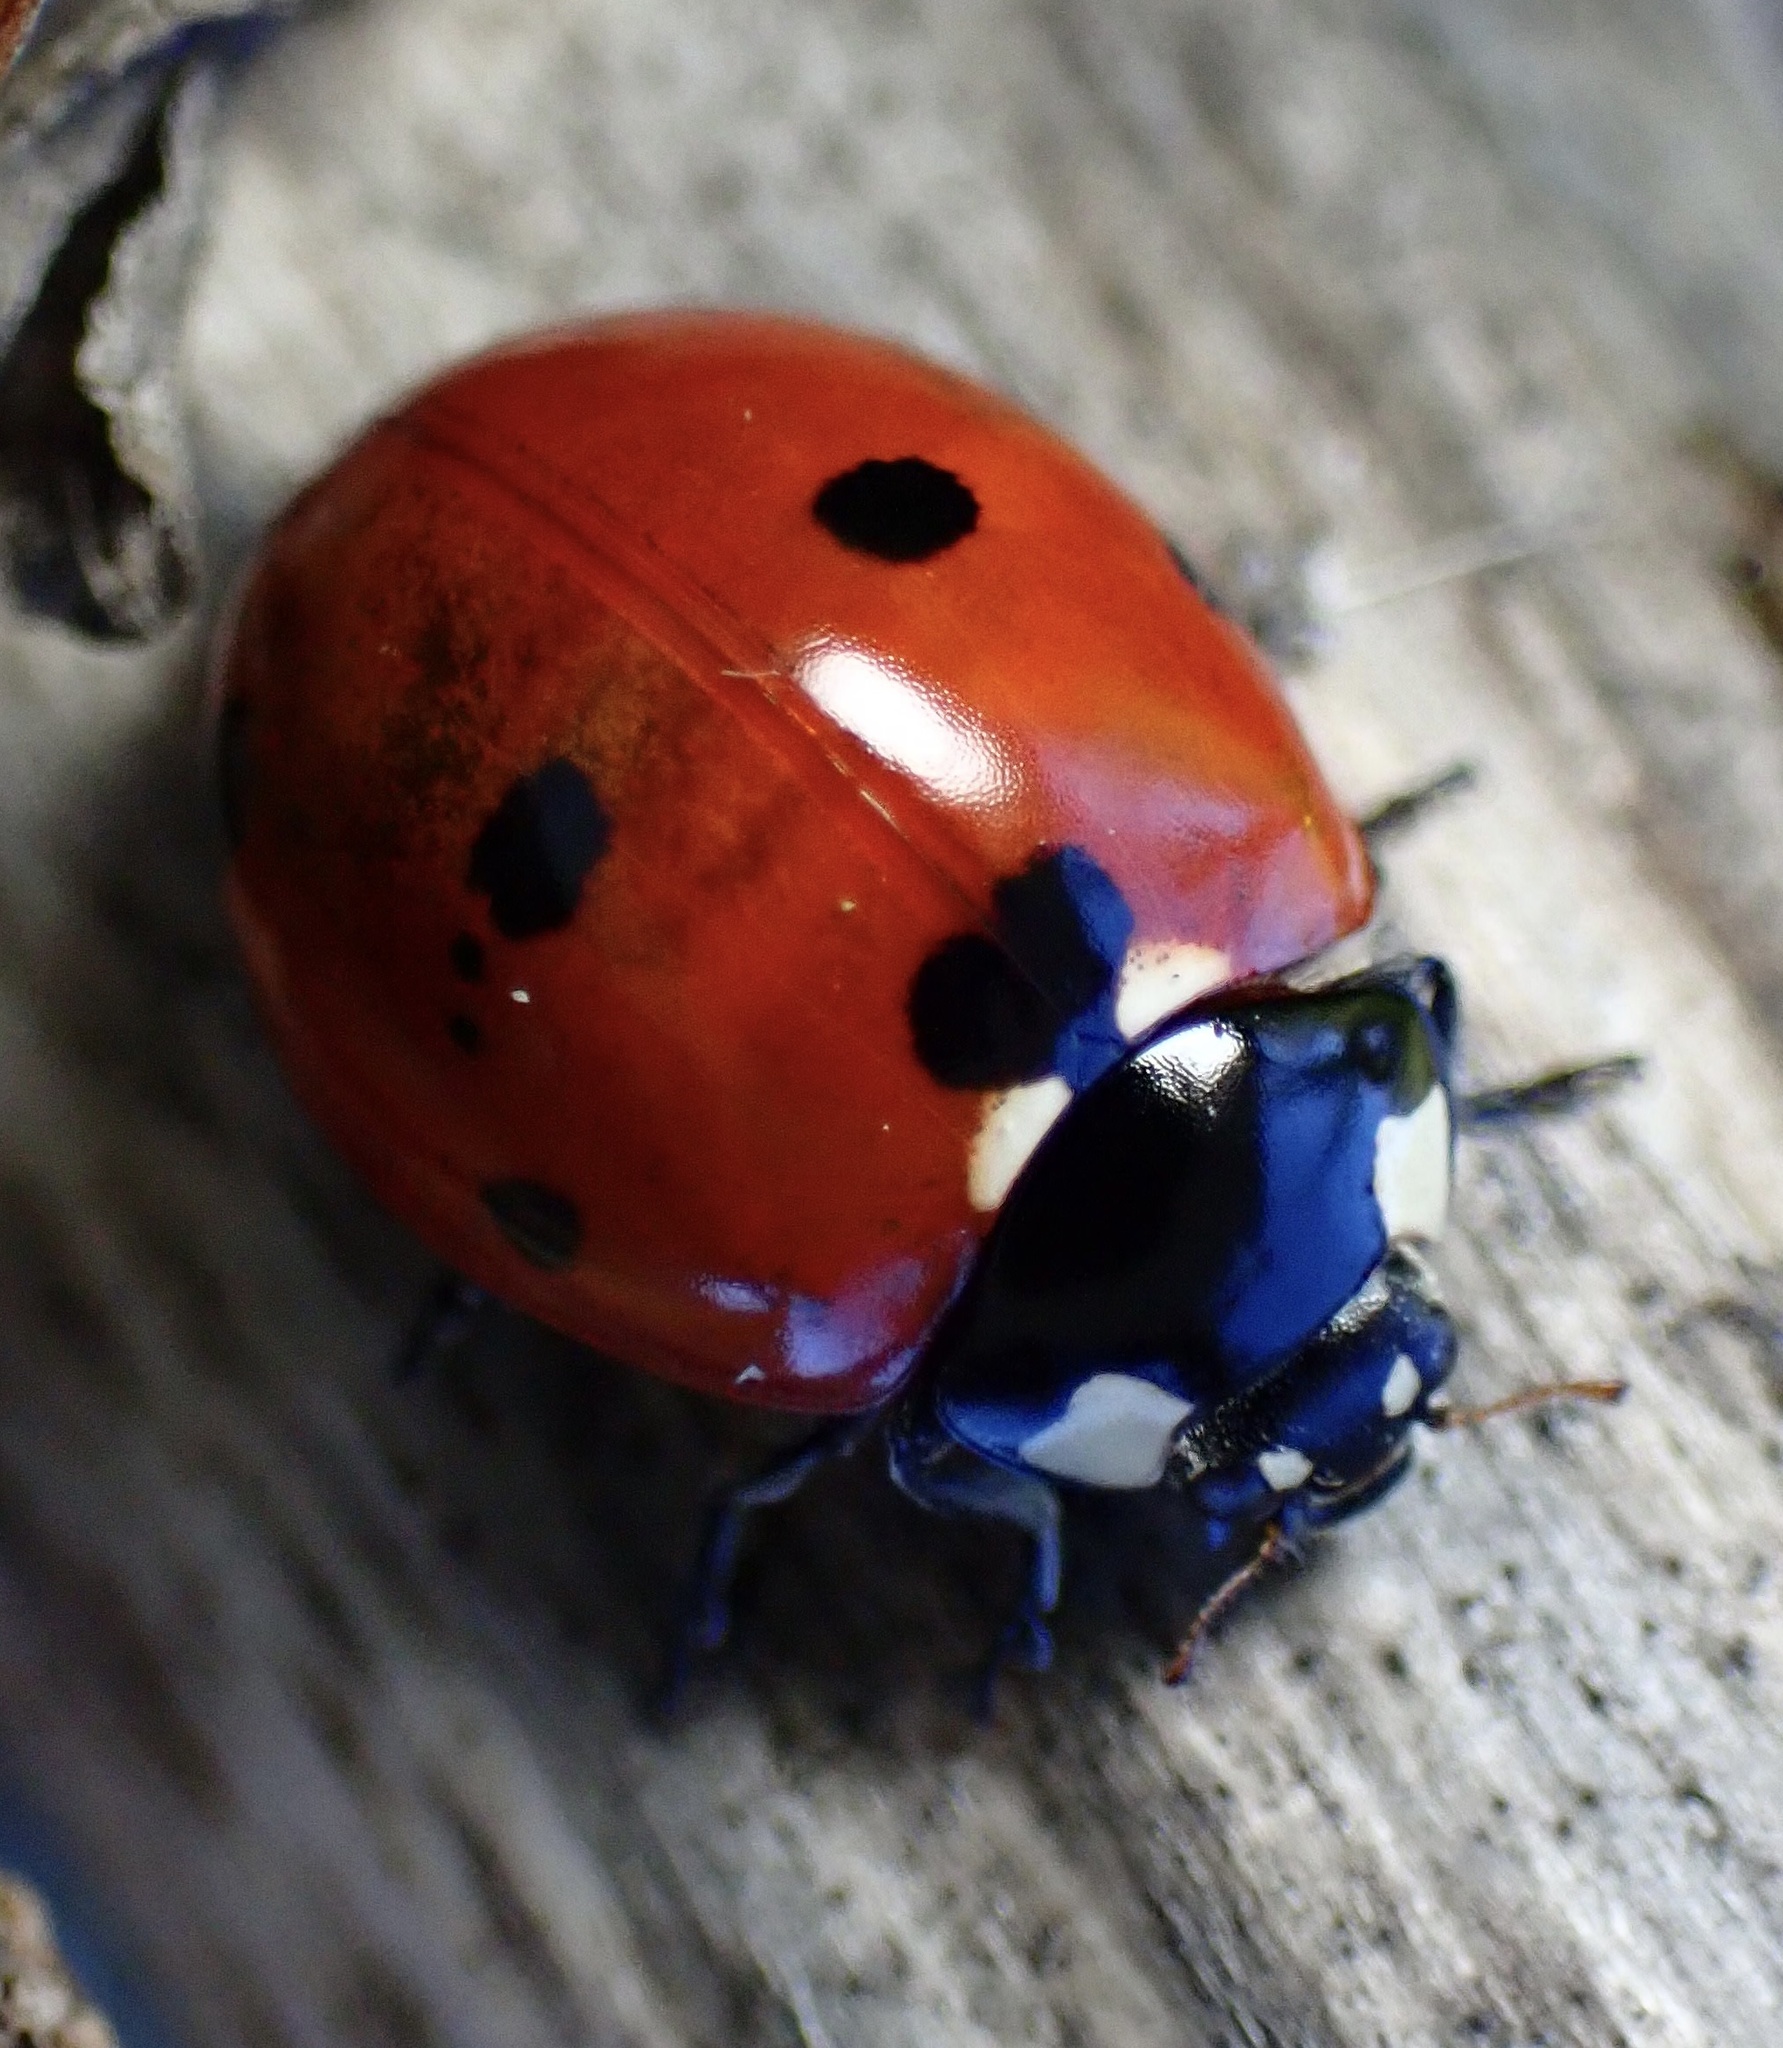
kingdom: Animalia
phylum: Arthropoda
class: Insecta
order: Coleoptera
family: Coccinellidae
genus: Coccinella
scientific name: Coccinella septempunctata
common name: Sevenspotted lady beetle
